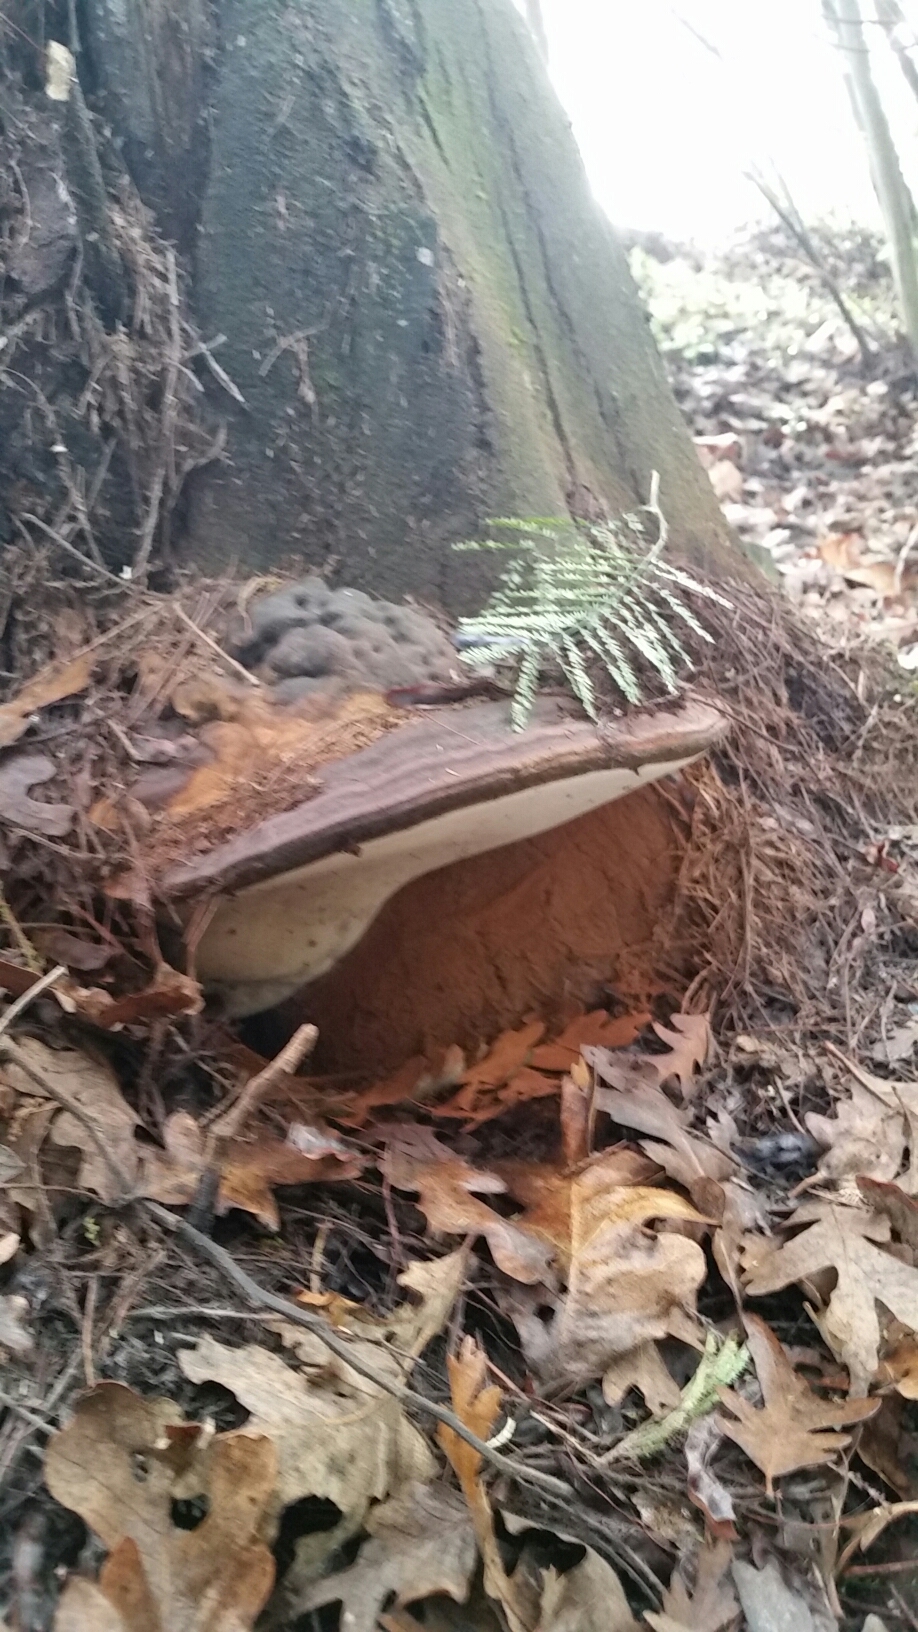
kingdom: Fungi
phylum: Basidiomycota
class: Agaricomycetes
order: Polyporales
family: Polyporaceae
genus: Ganoderma
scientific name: Ganoderma brownii
